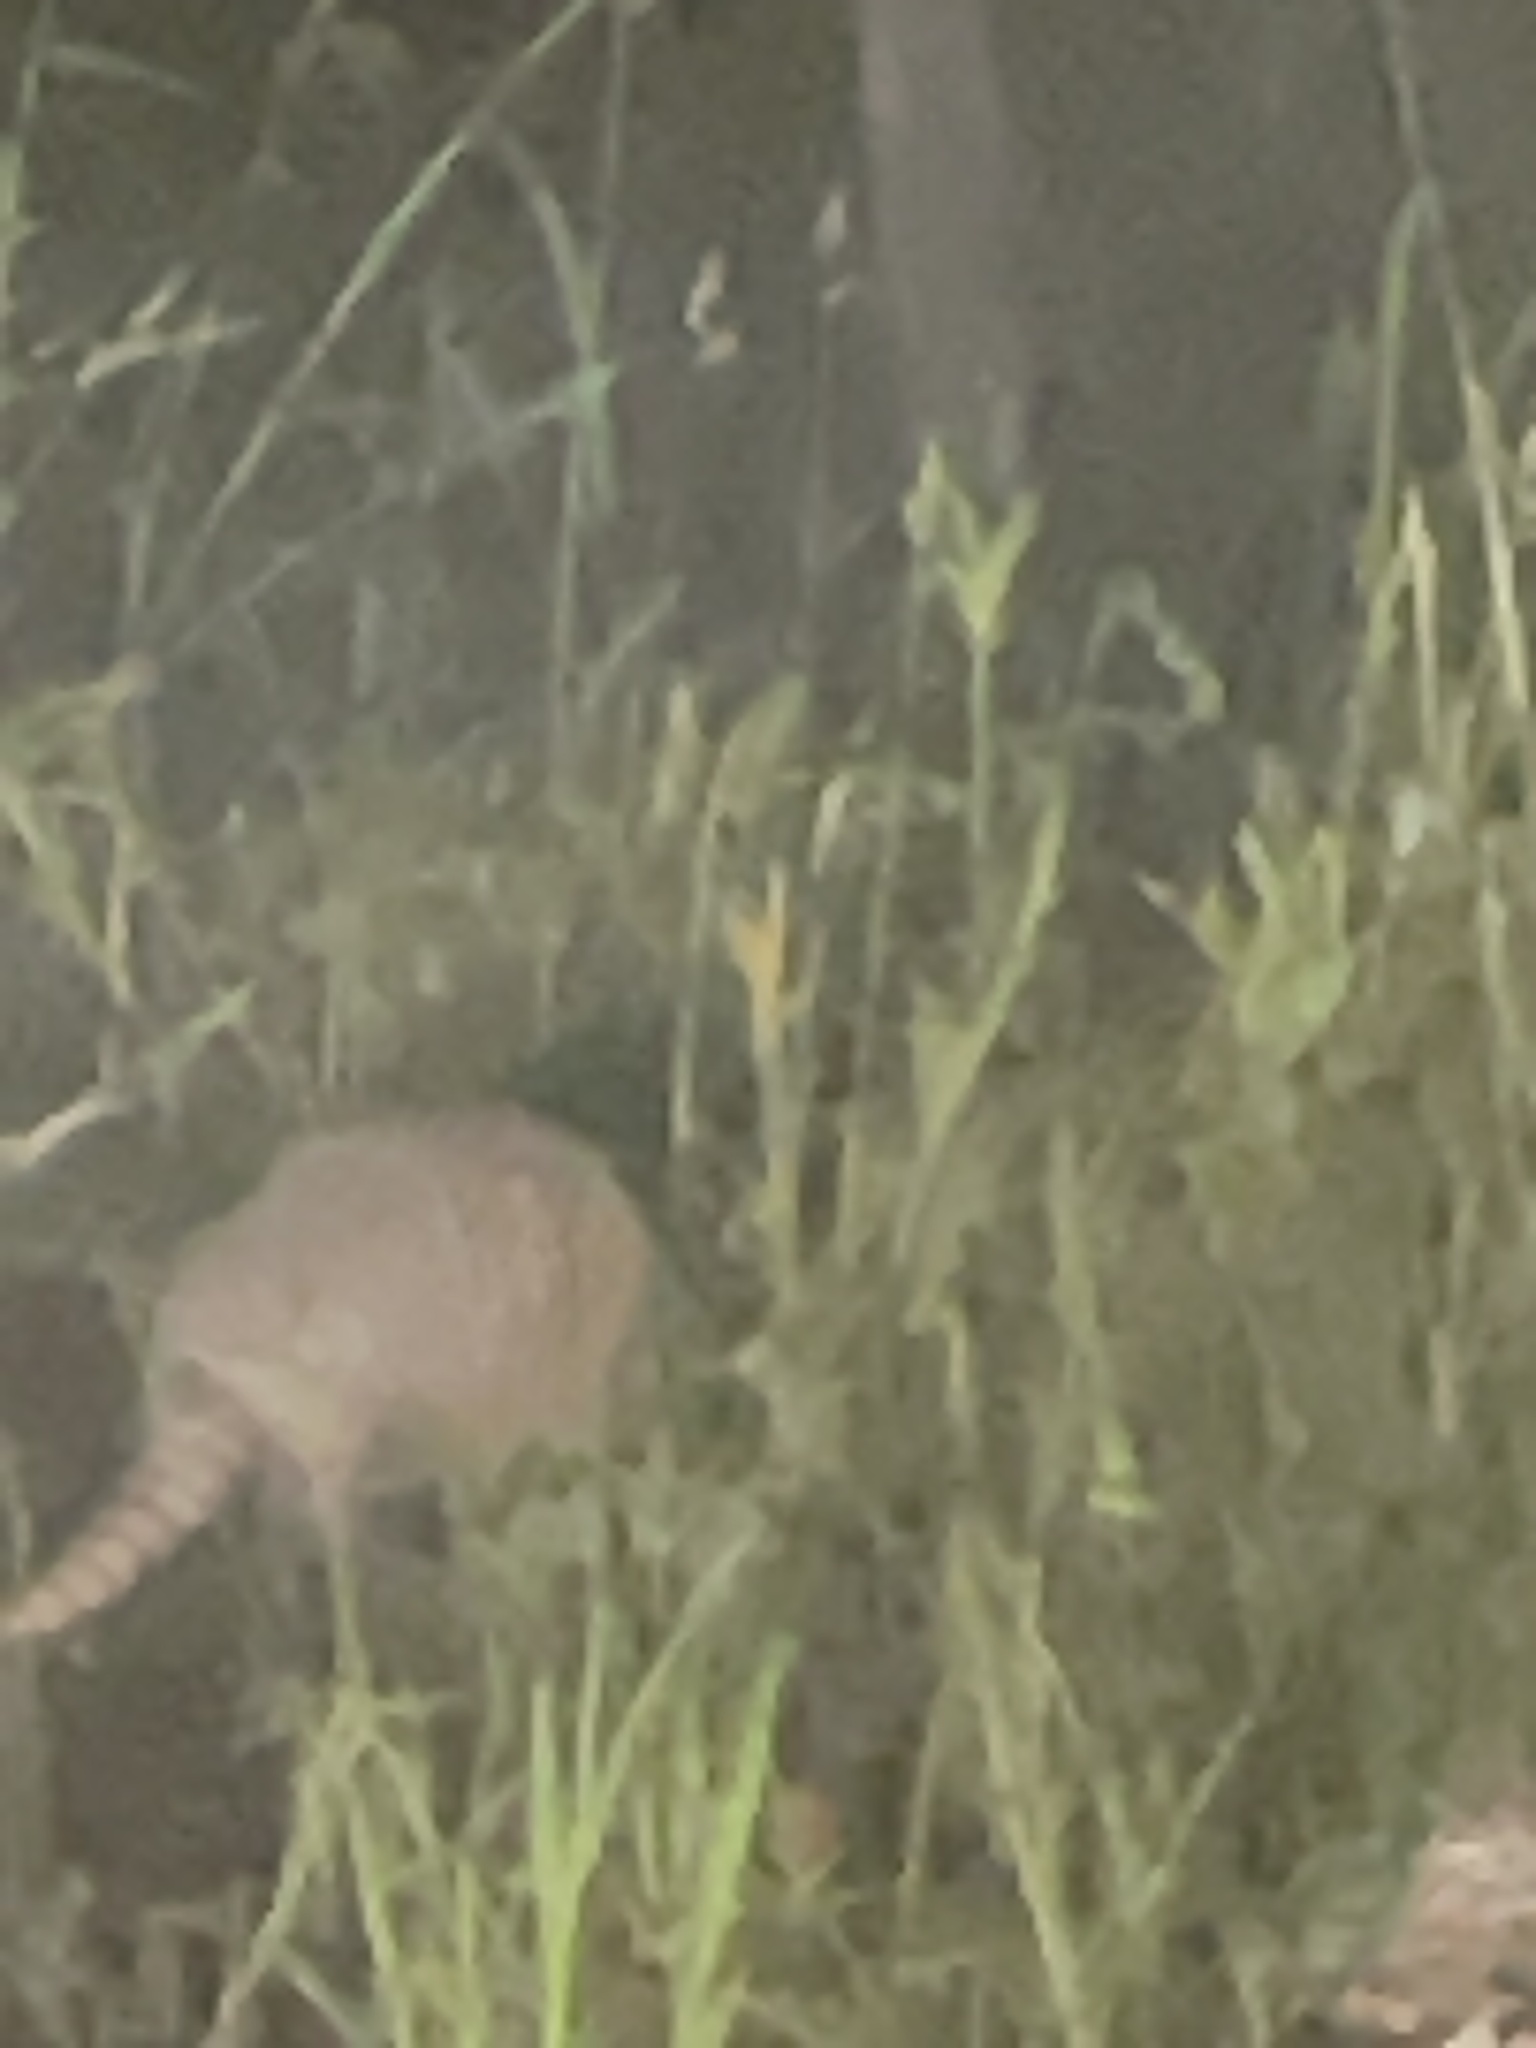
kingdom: Animalia
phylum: Chordata
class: Mammalia
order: Cingulata
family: Dasypodidae
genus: Dasypus
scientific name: Dasypus novemcinctus
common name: Nine-banded armadillo
